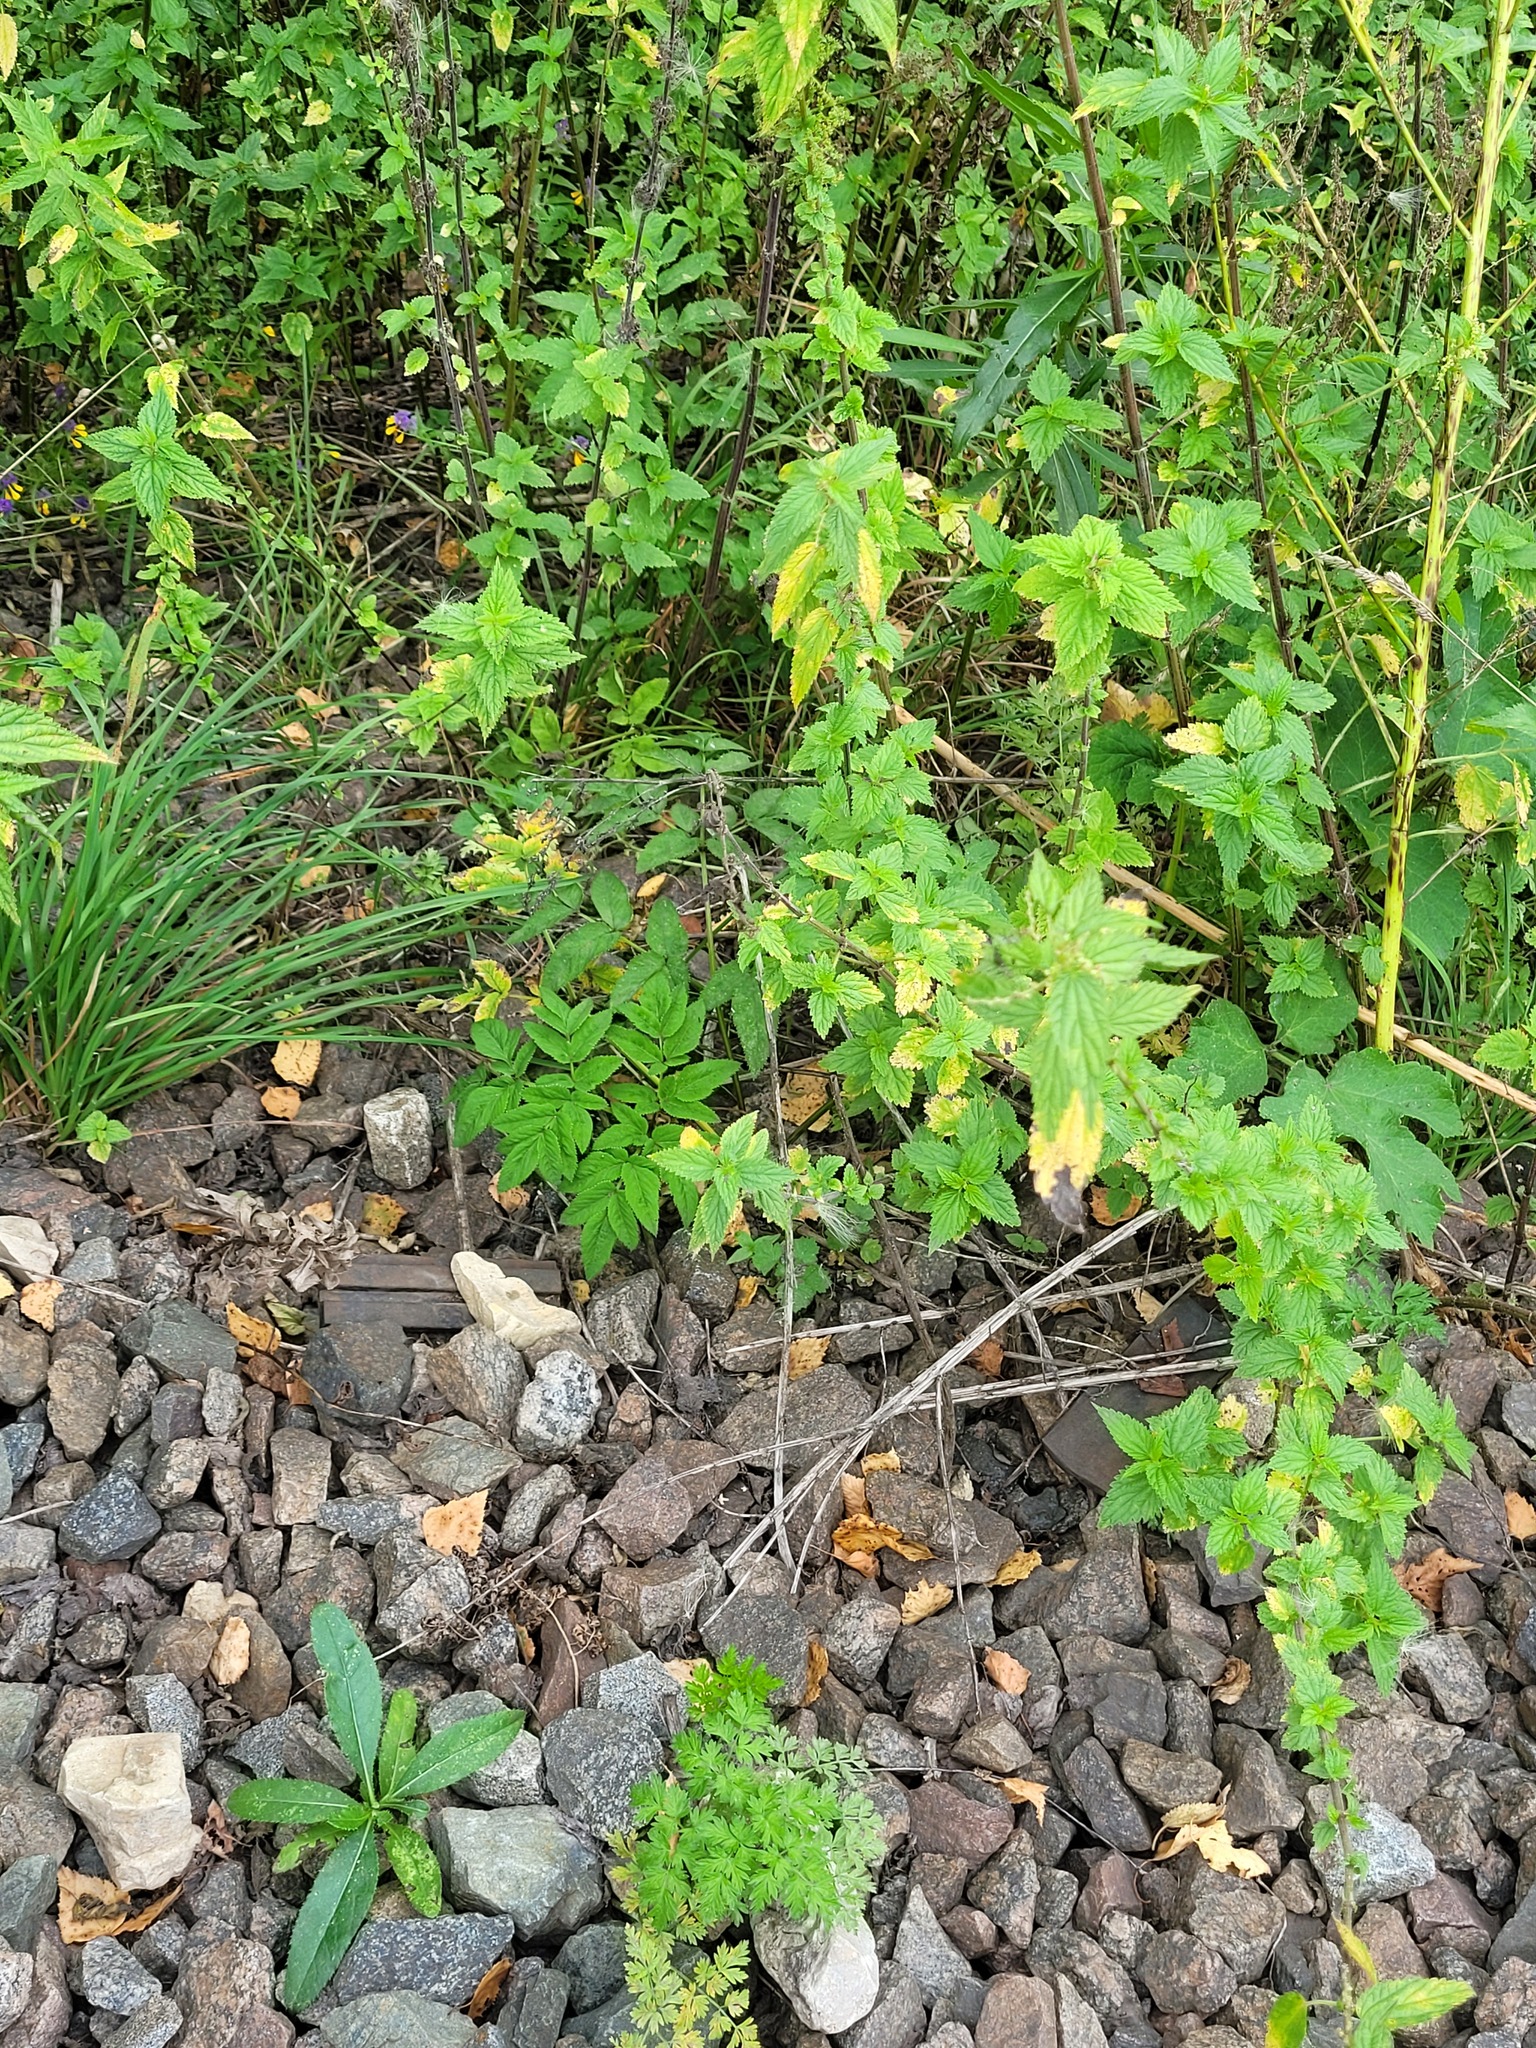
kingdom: Plantae
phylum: Tracheophyta
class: Magnoliopsida
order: Apiales
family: Apiaceae
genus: Angelica
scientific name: Angelica sylvestris
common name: Wild angelica
